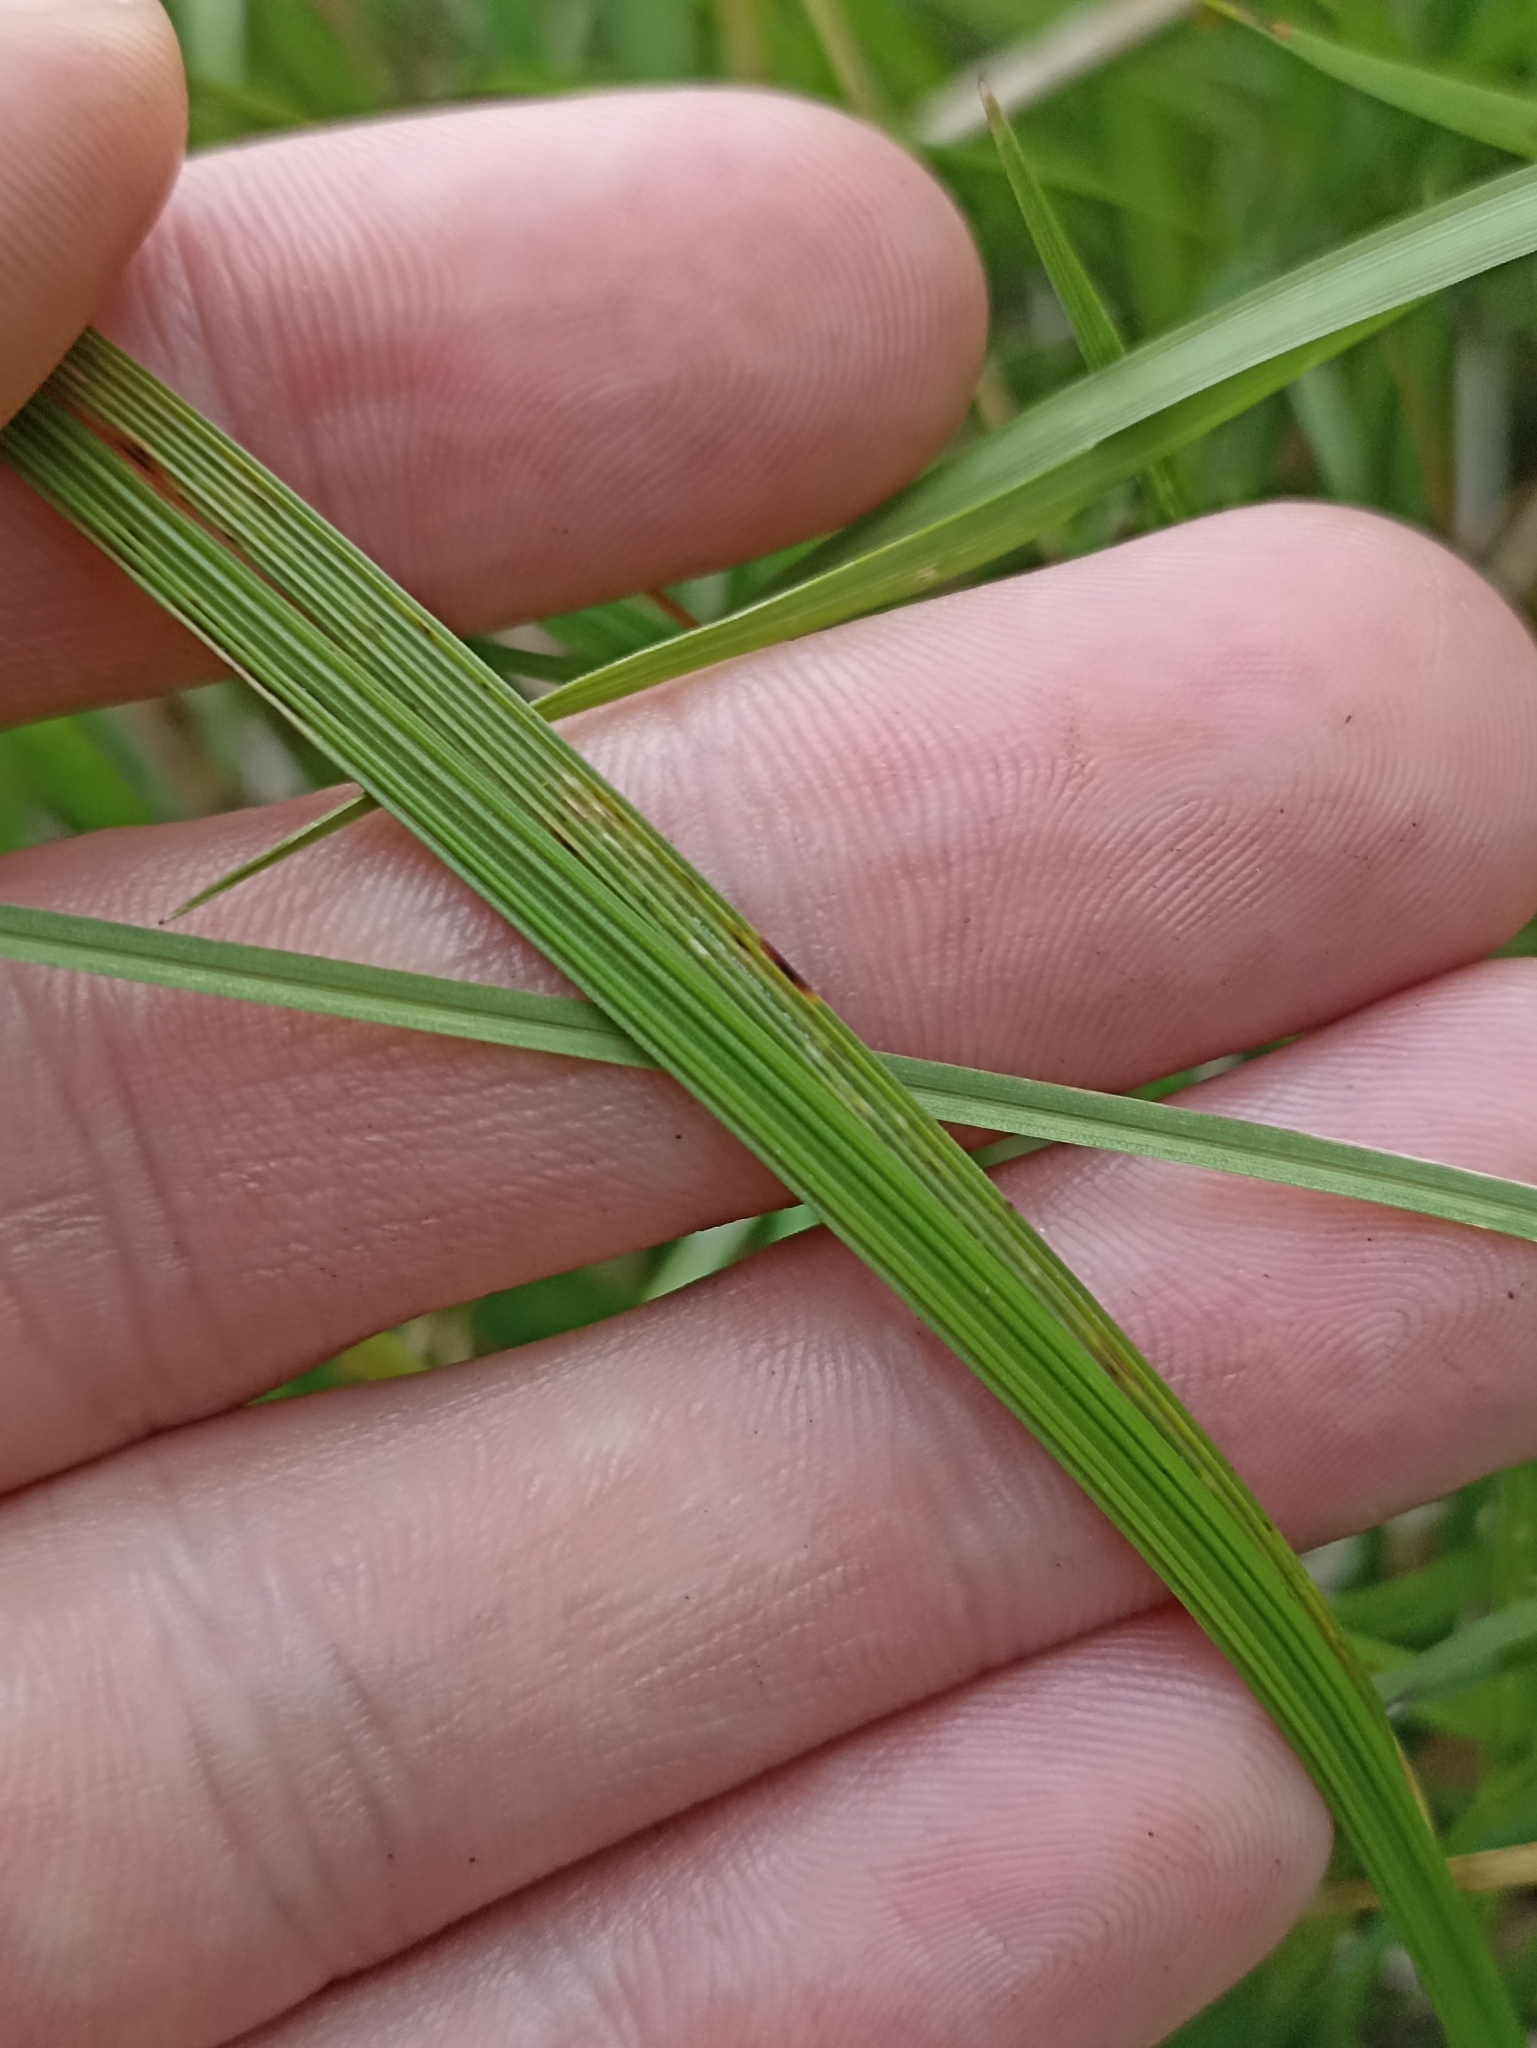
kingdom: Plantae
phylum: Tracheophyta
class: Liliopsida
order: Poales
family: Poaceae
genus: Deschampsia
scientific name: Deschampsia cespitosa
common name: Tufted hair-grass
